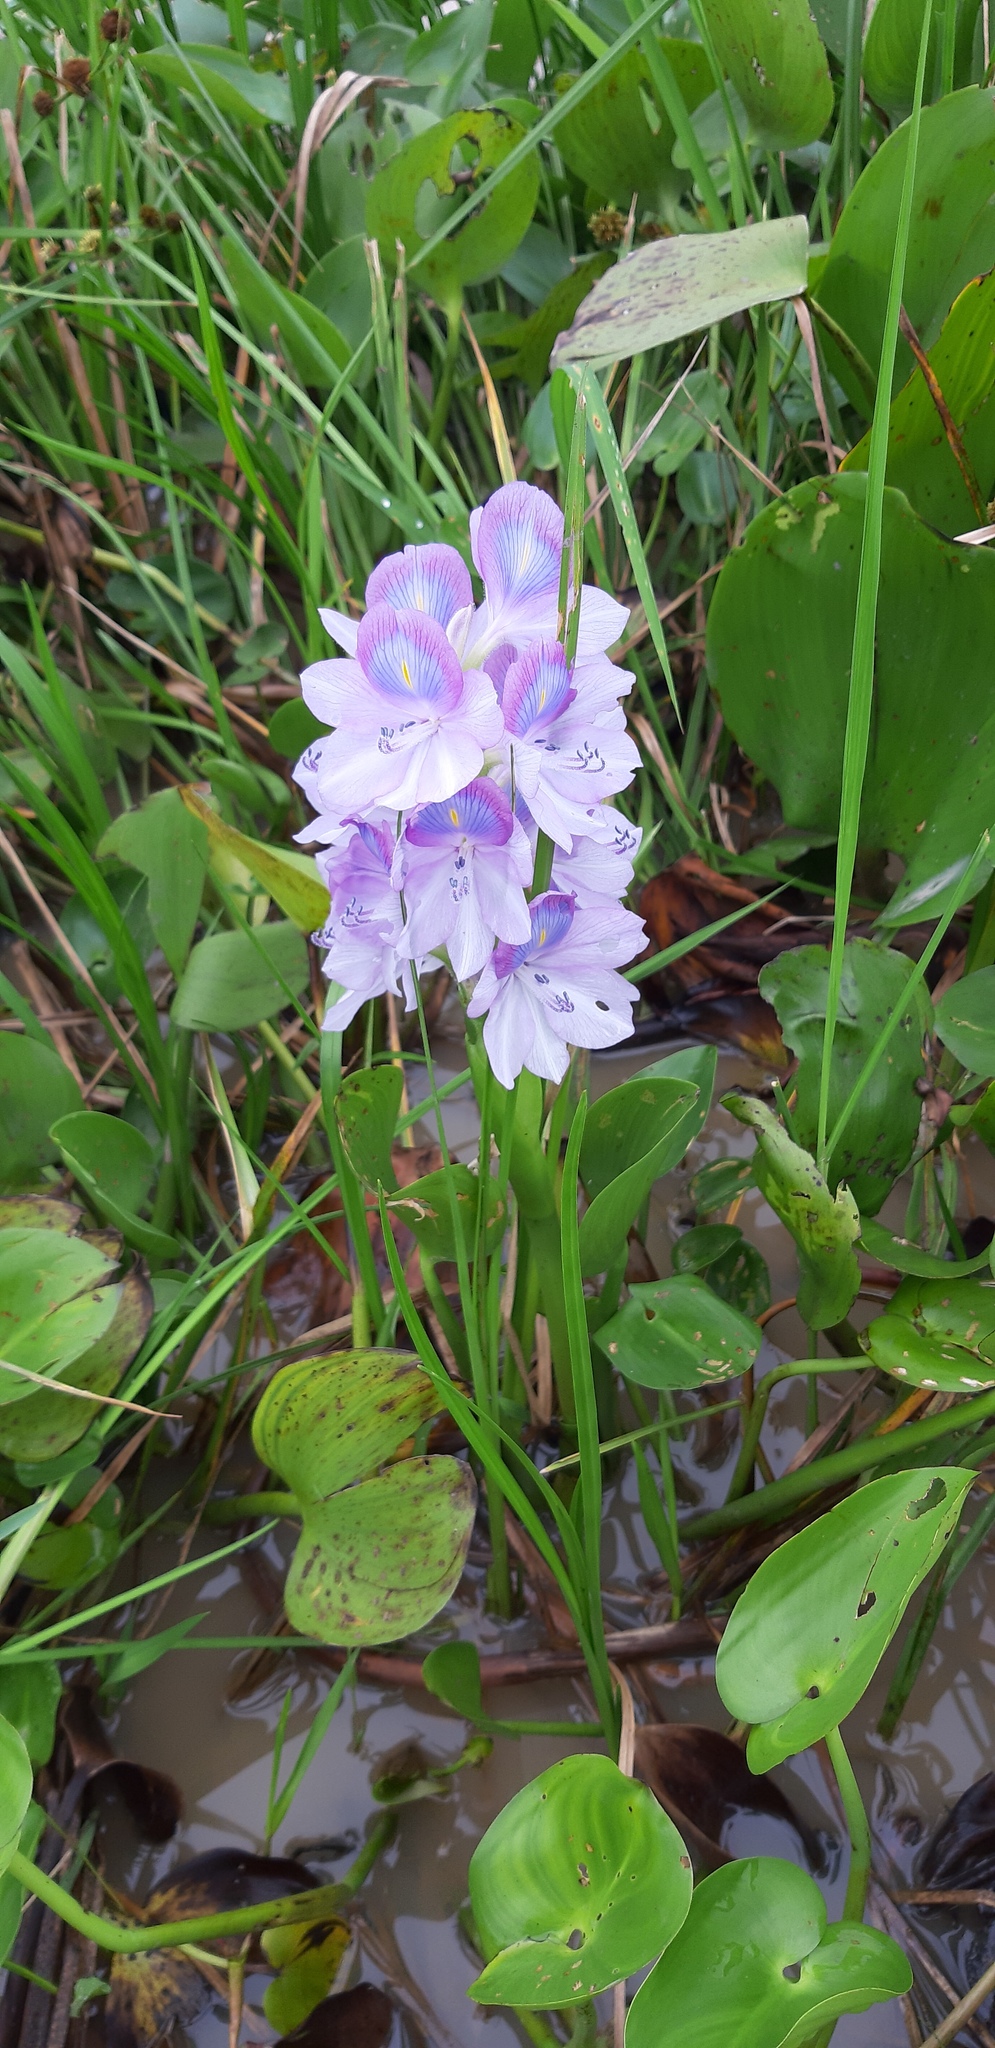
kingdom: Plantae
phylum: Tracheophyta
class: Liliopsida
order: Commelinales
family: Pontederiaceae
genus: Pontederia
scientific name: Pontederia crassipes
